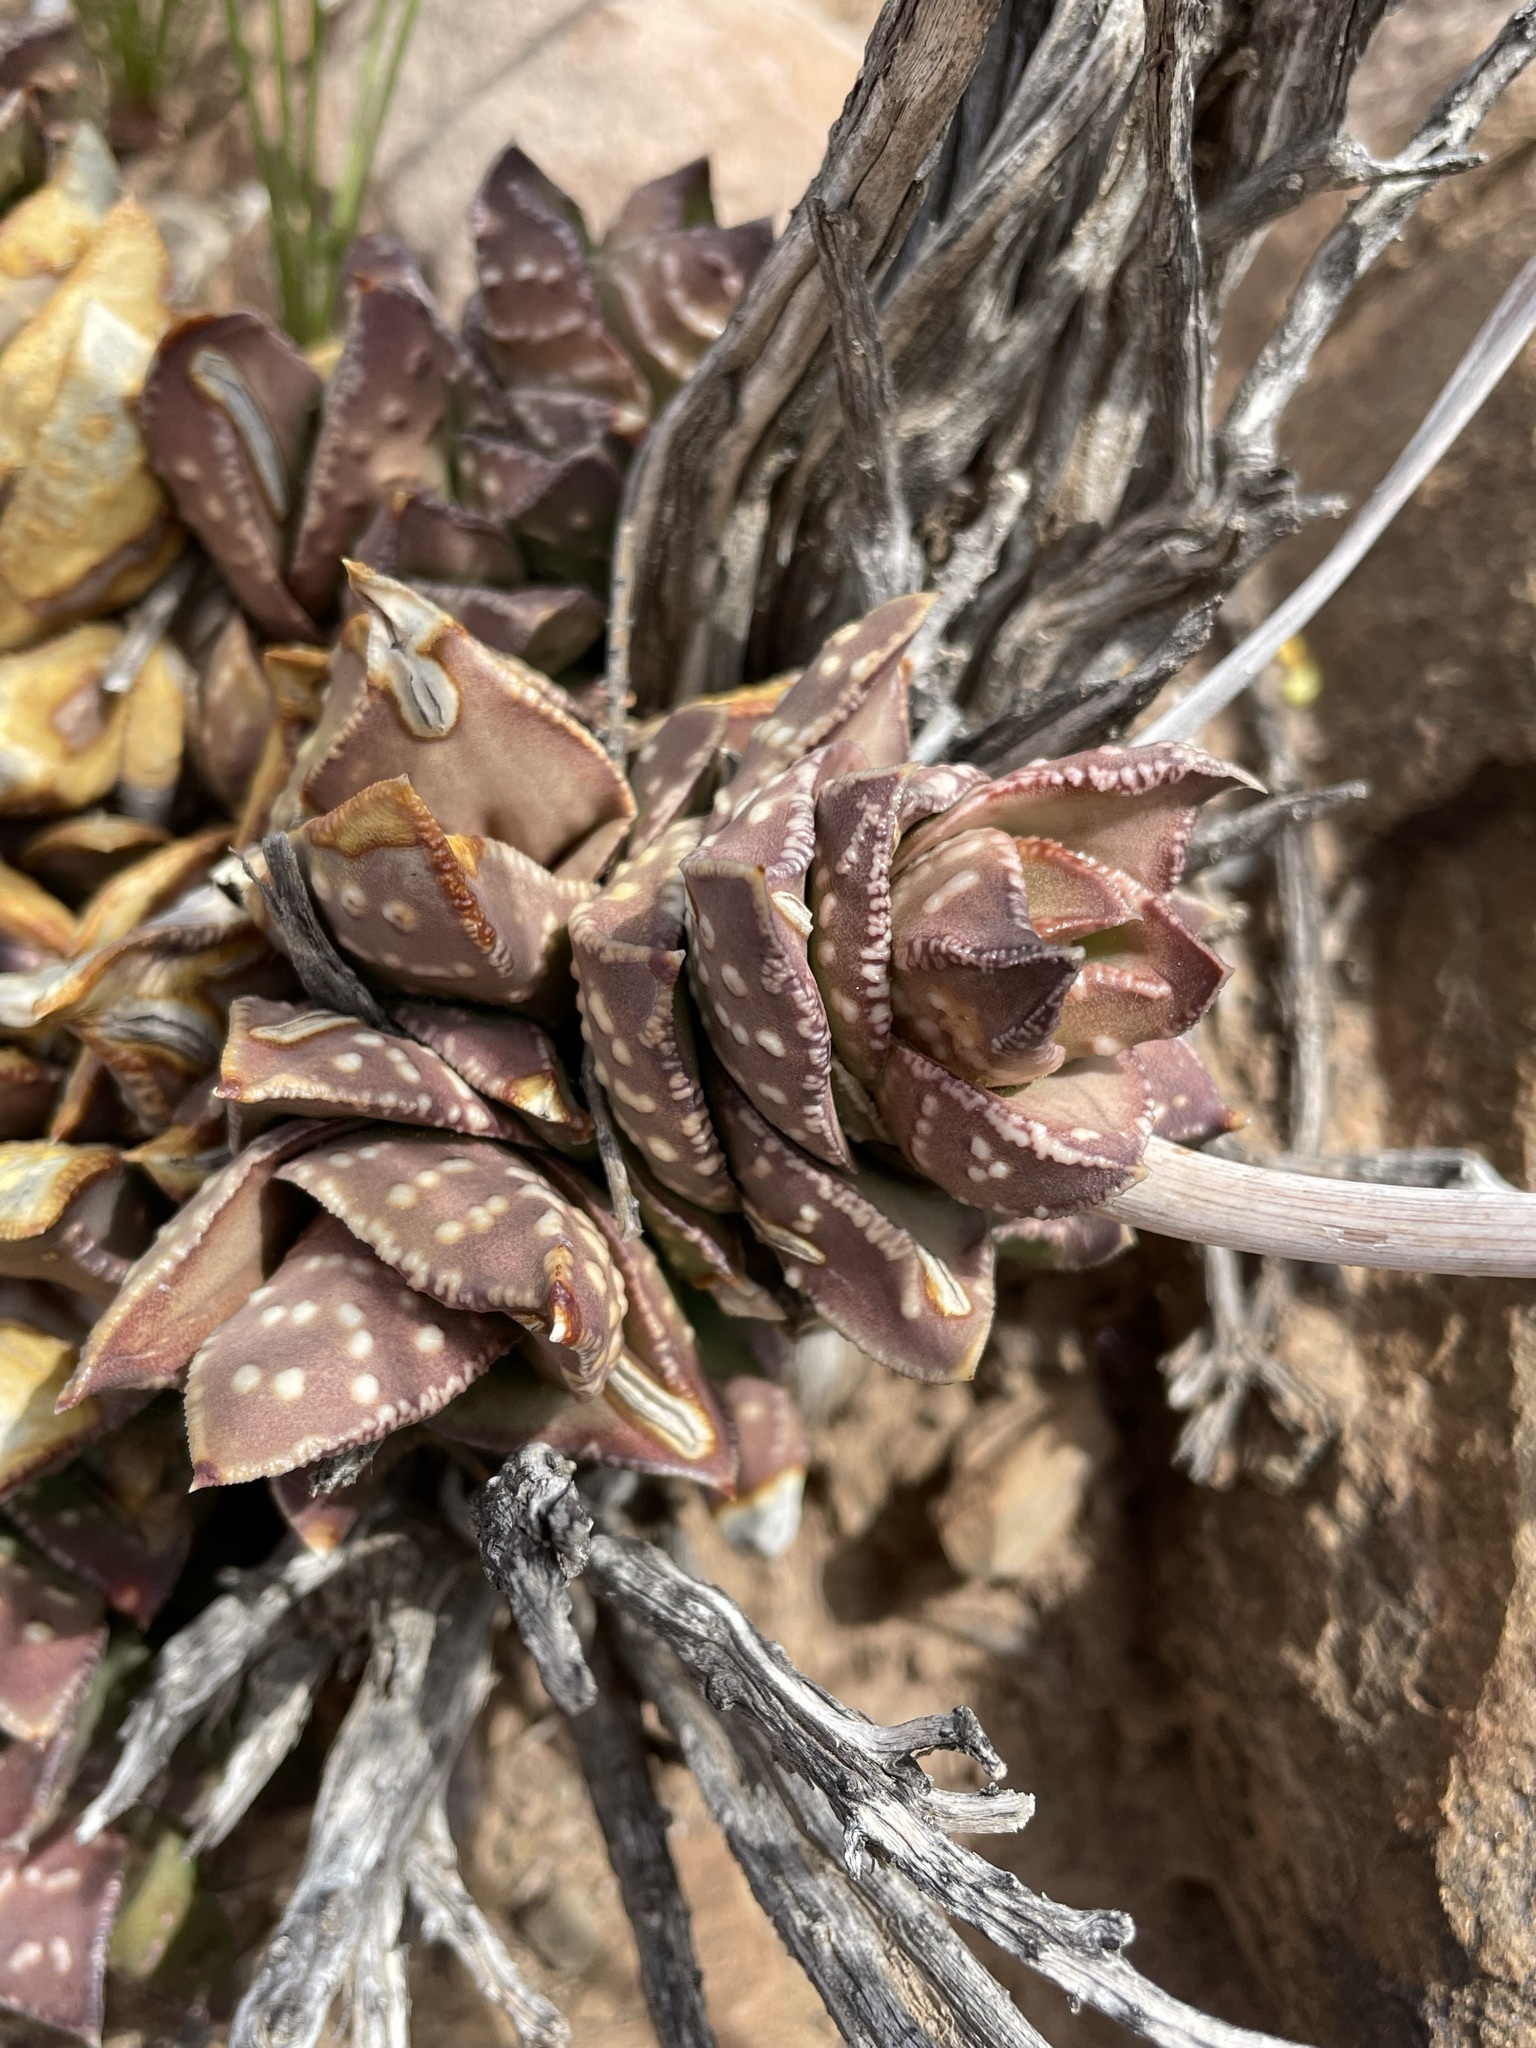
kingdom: Plantae
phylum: Tracheophyta
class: Liliopsida
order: Asparagales
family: Asphodelaceae
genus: Astroloba
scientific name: Astroloba bullulata
